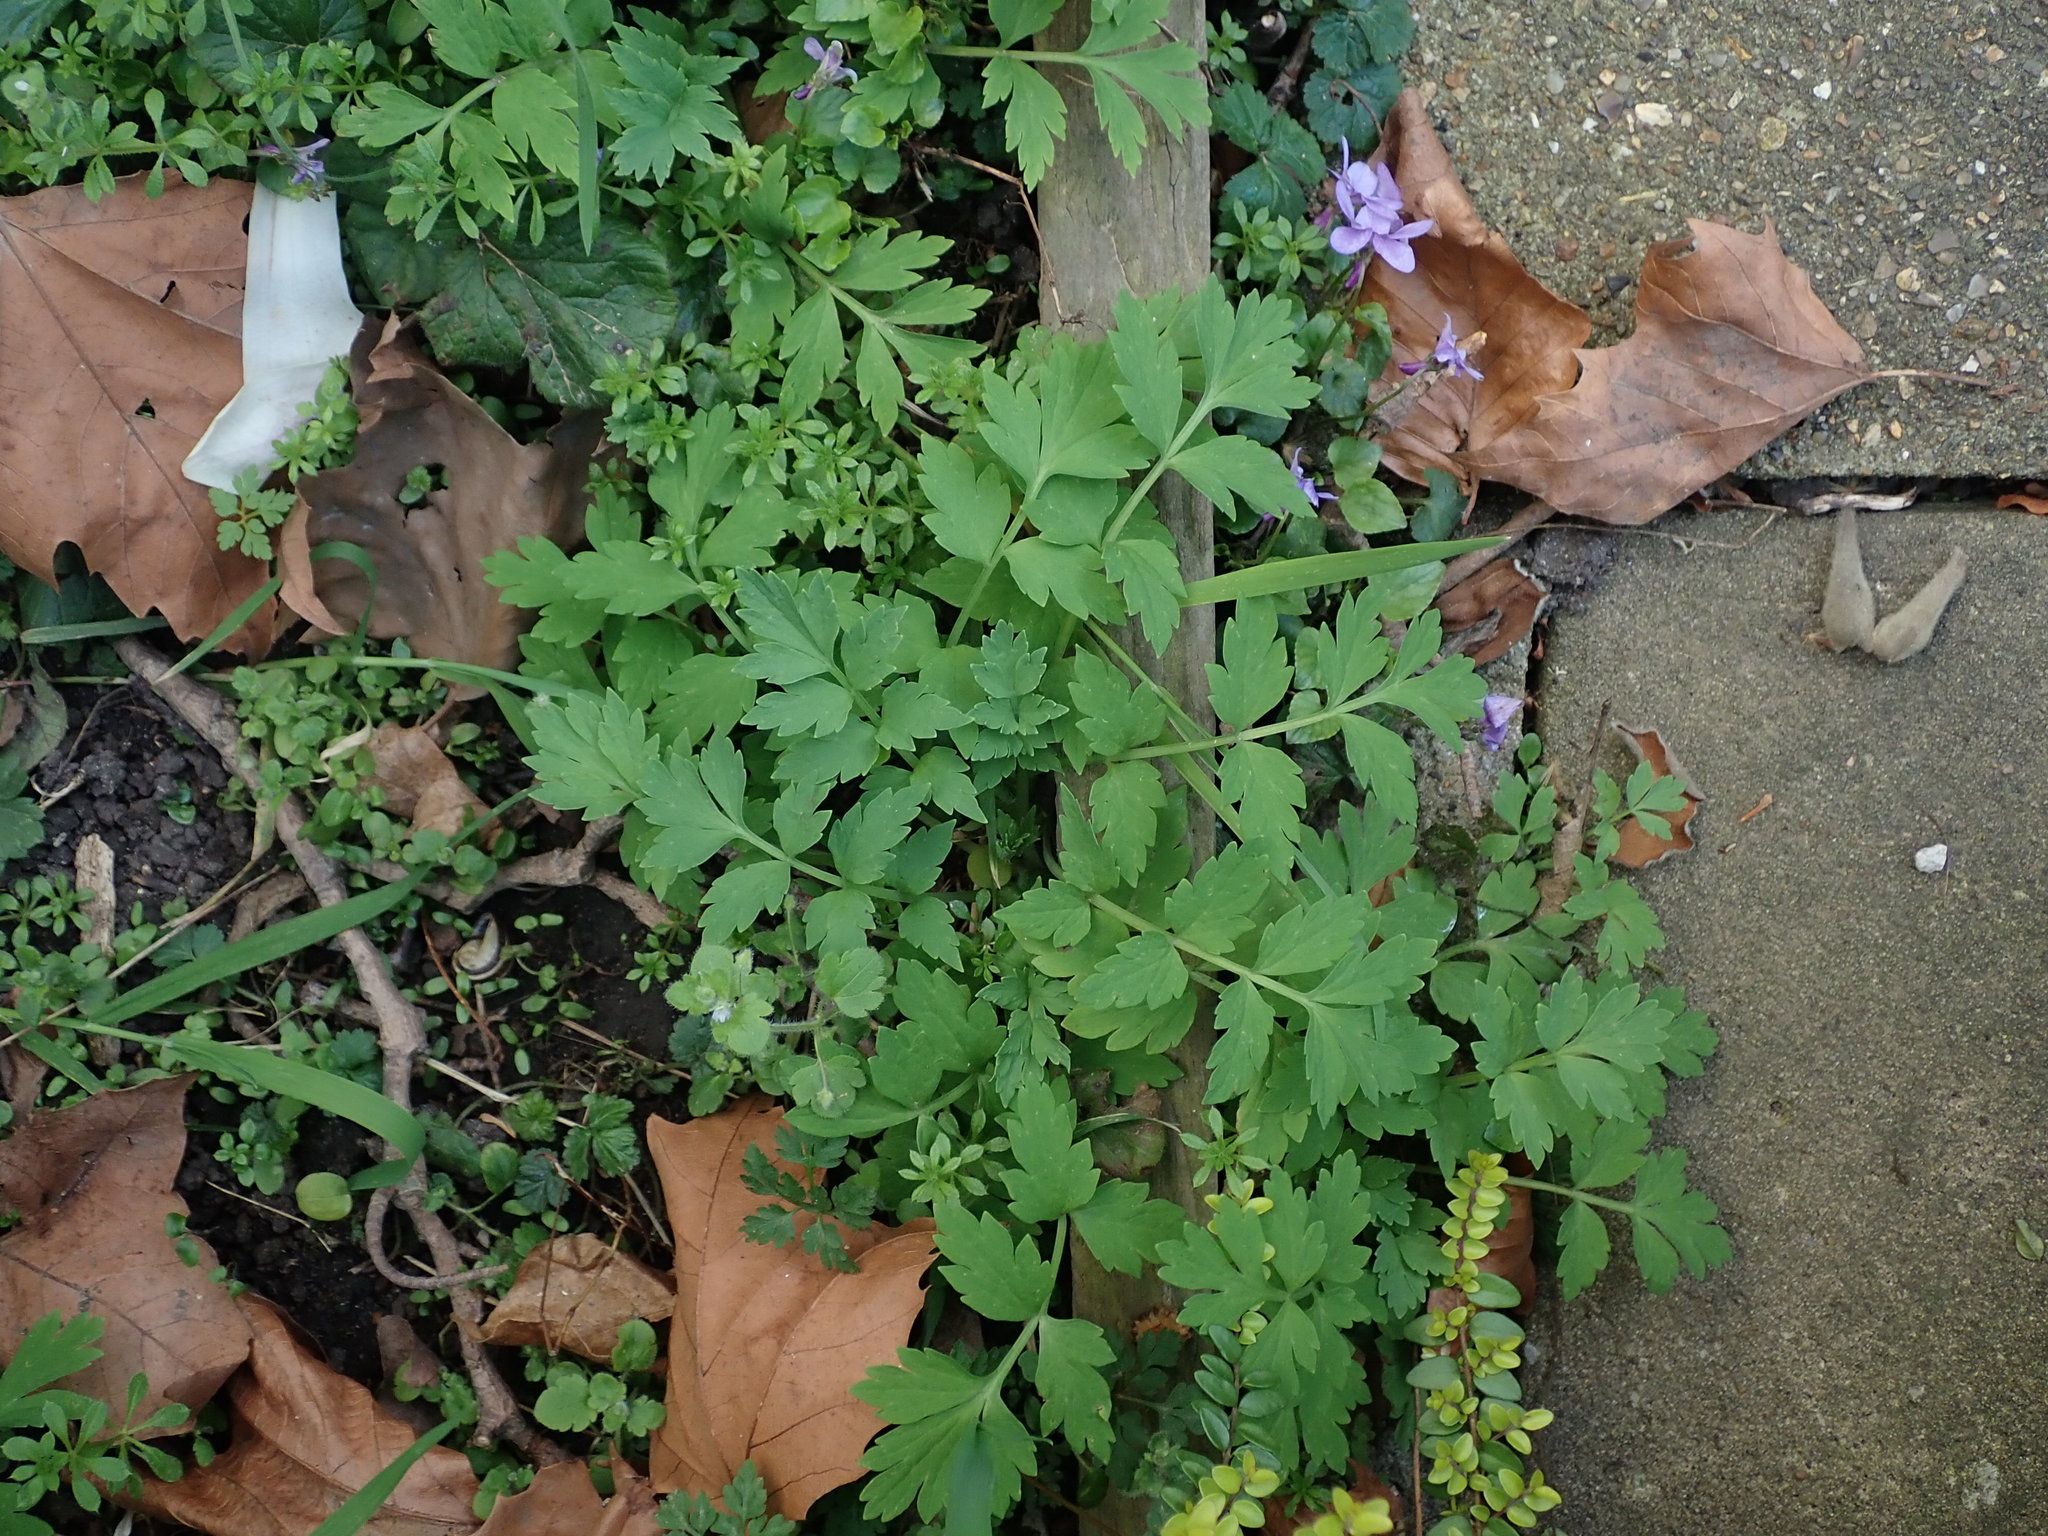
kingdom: Plantae
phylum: Tracheophyta
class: Magnoliopsida
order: Ranunculales
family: Papaveraceae
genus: Papaver
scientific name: Papaver cambricum
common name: Poppy
